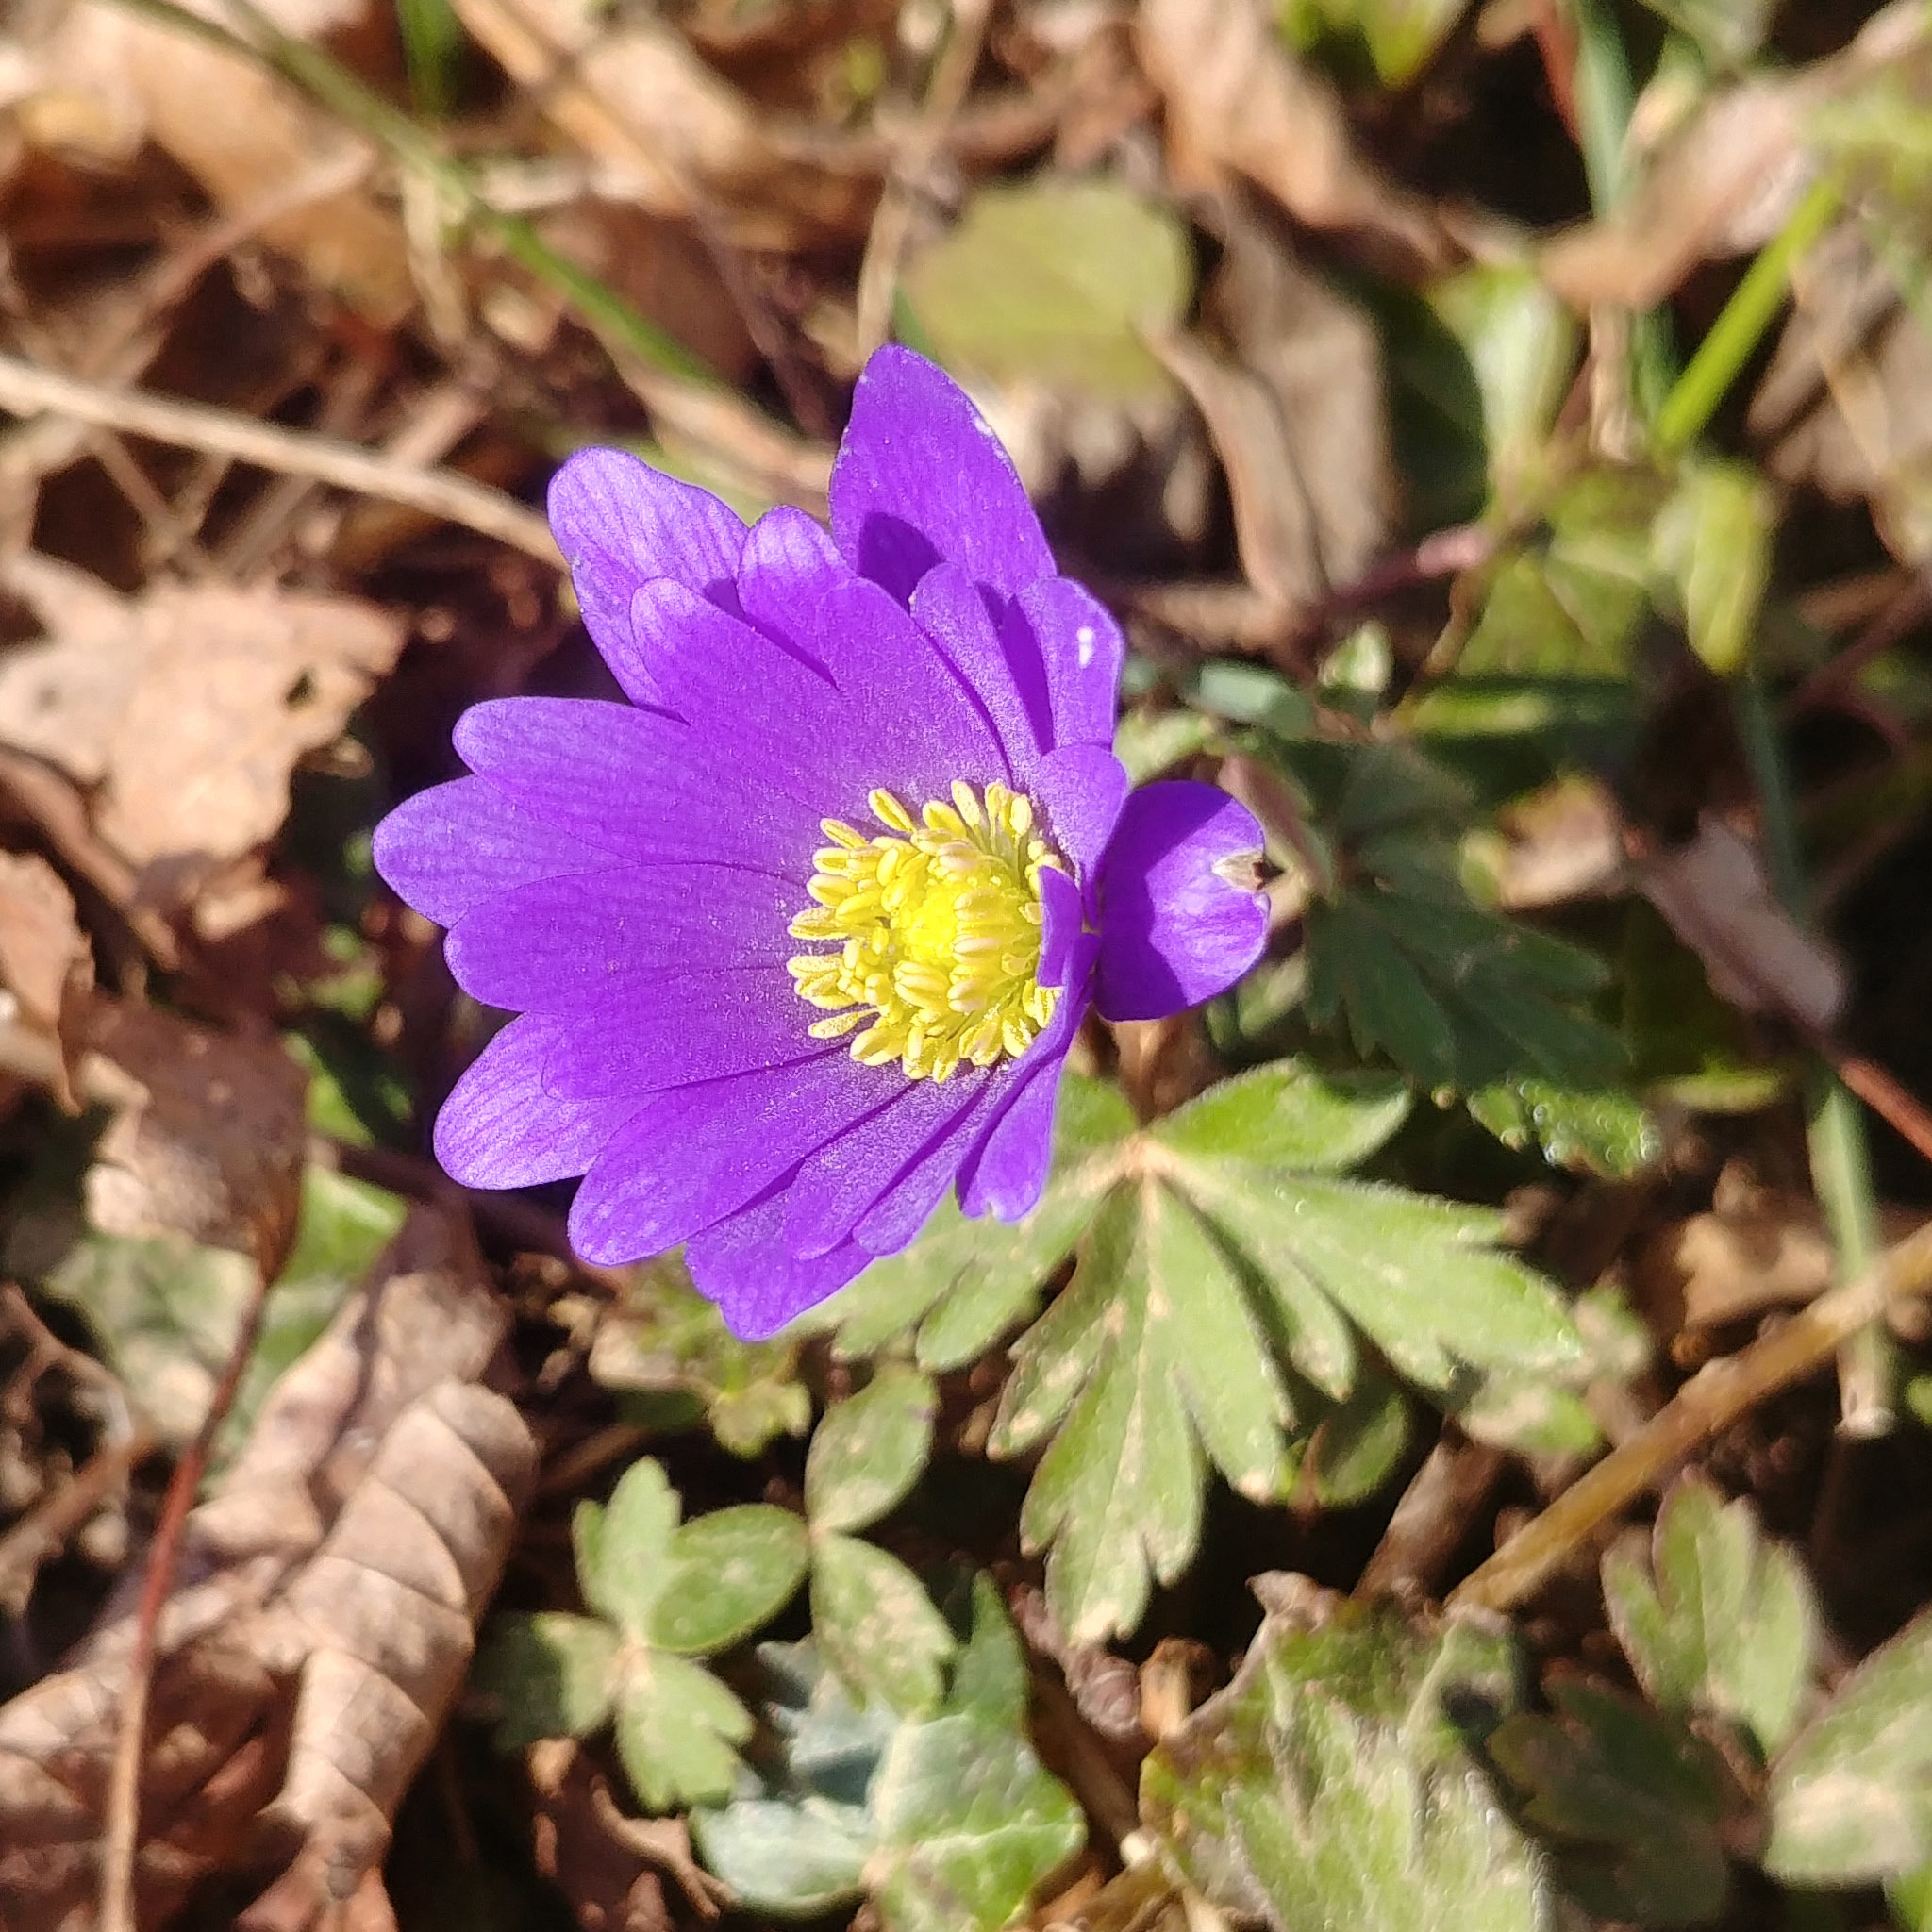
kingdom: Plantae
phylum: Tracheophyta
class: Magnoliopsida
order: Ranunculales
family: Ranunculaceae
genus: Anemone
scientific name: Anemone blanda
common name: Balkan anemone
